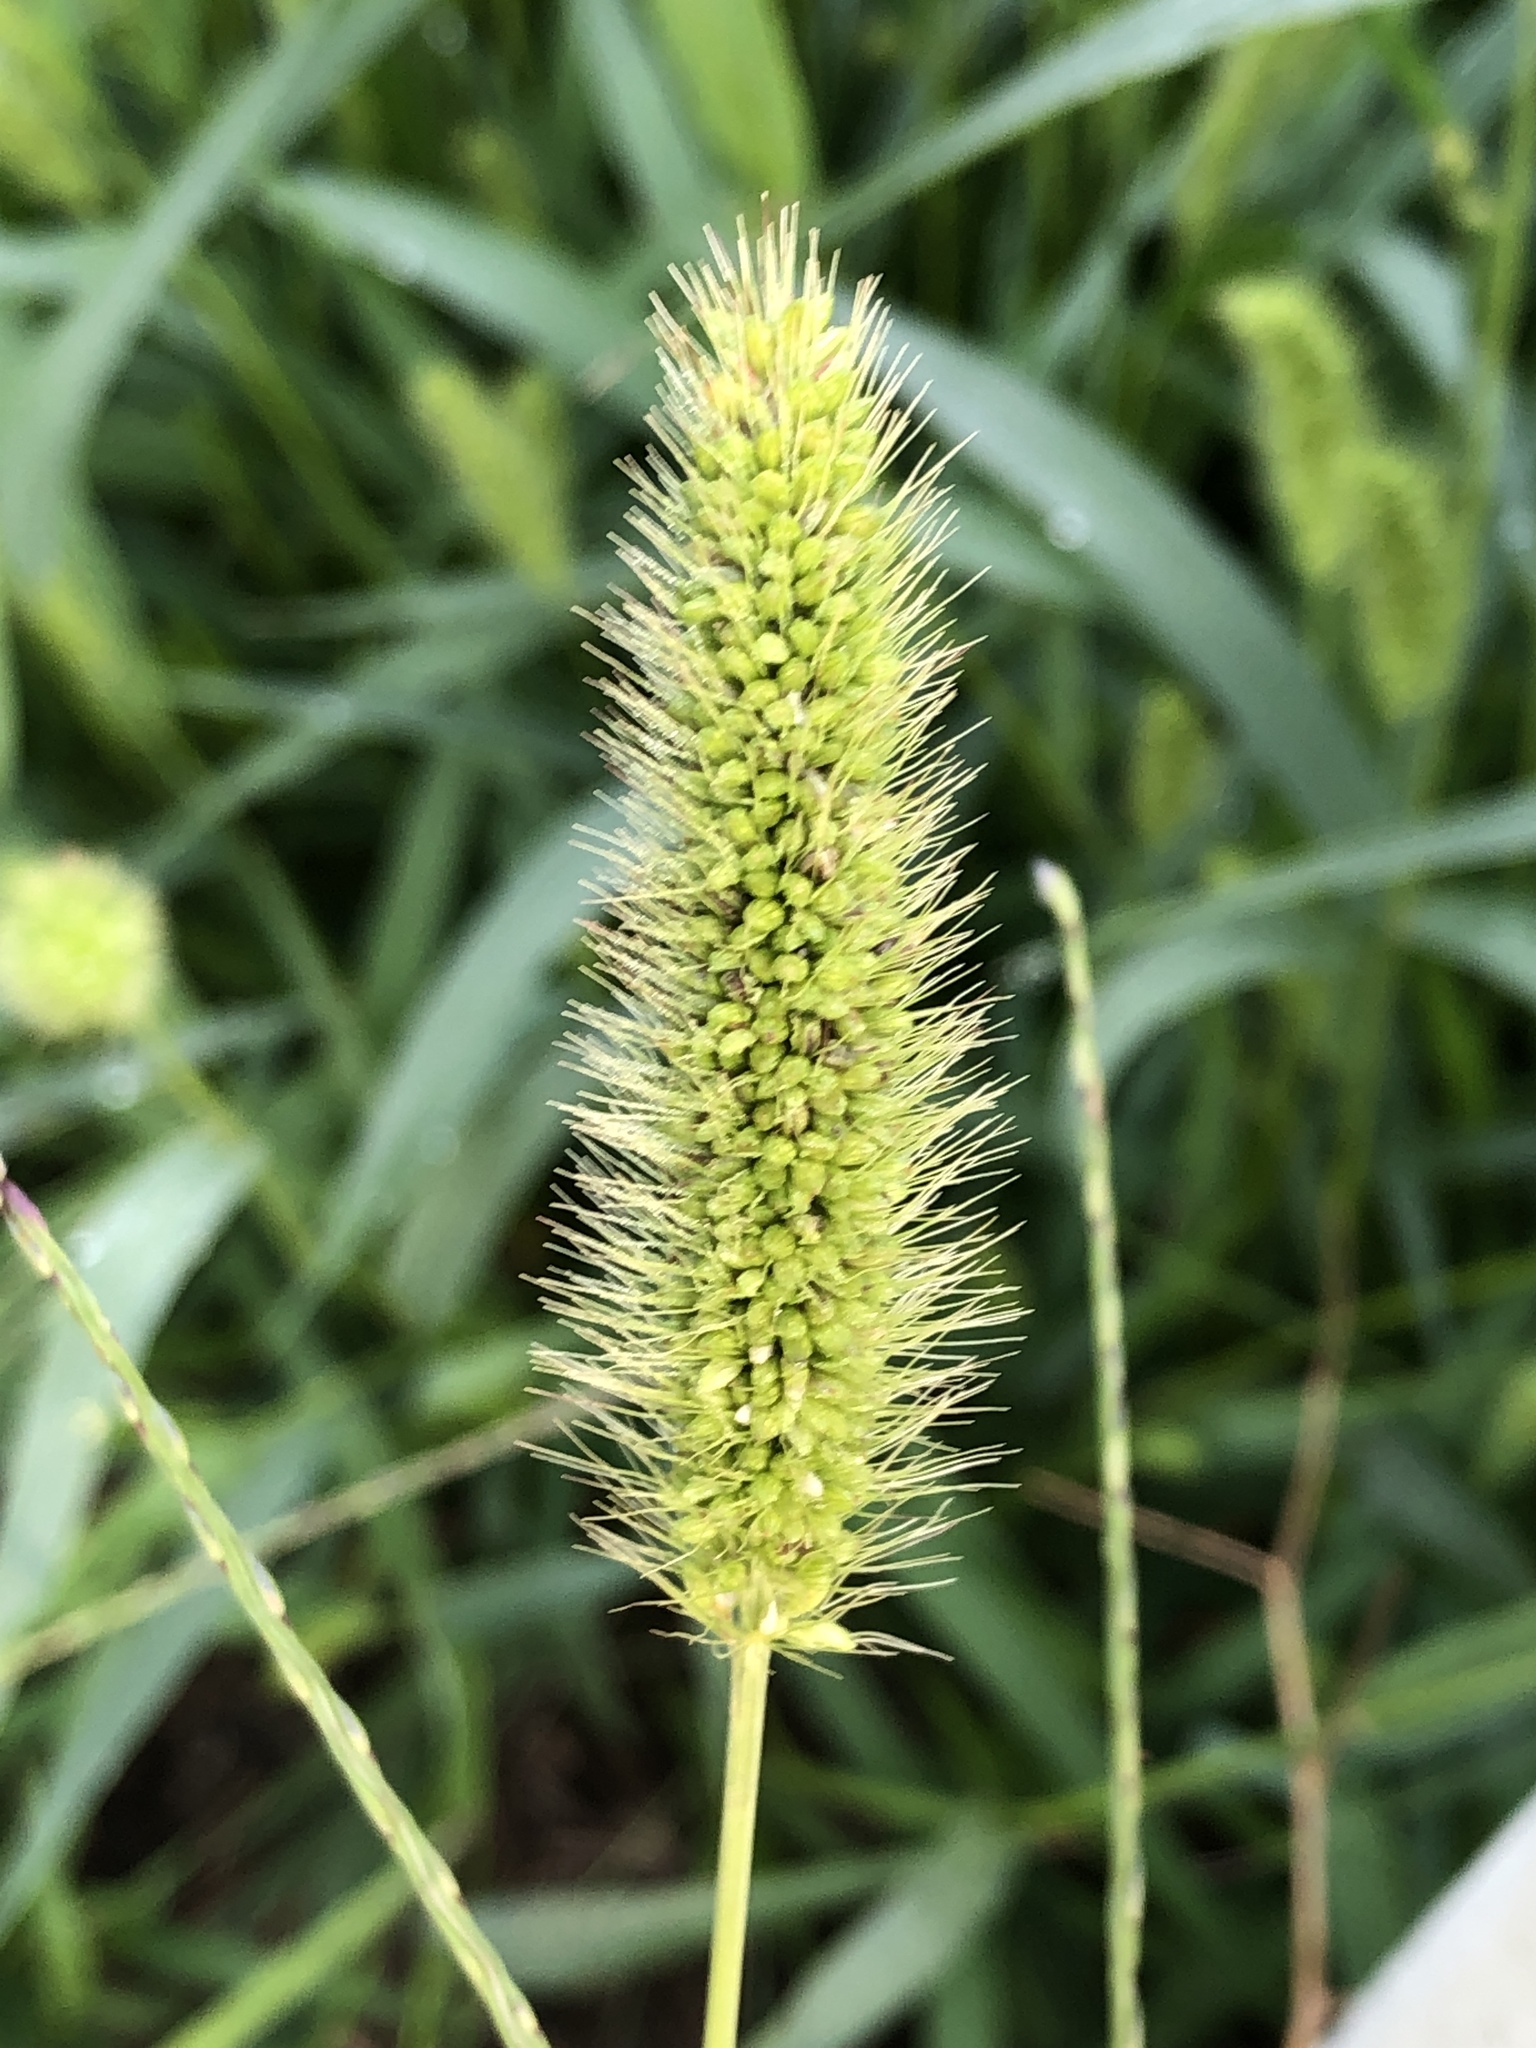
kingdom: Plantae
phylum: Tracheophyta
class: Liliopsida
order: Poales
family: Poaceae
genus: Setaria
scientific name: Setaria viridis
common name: Green bristlegrass
